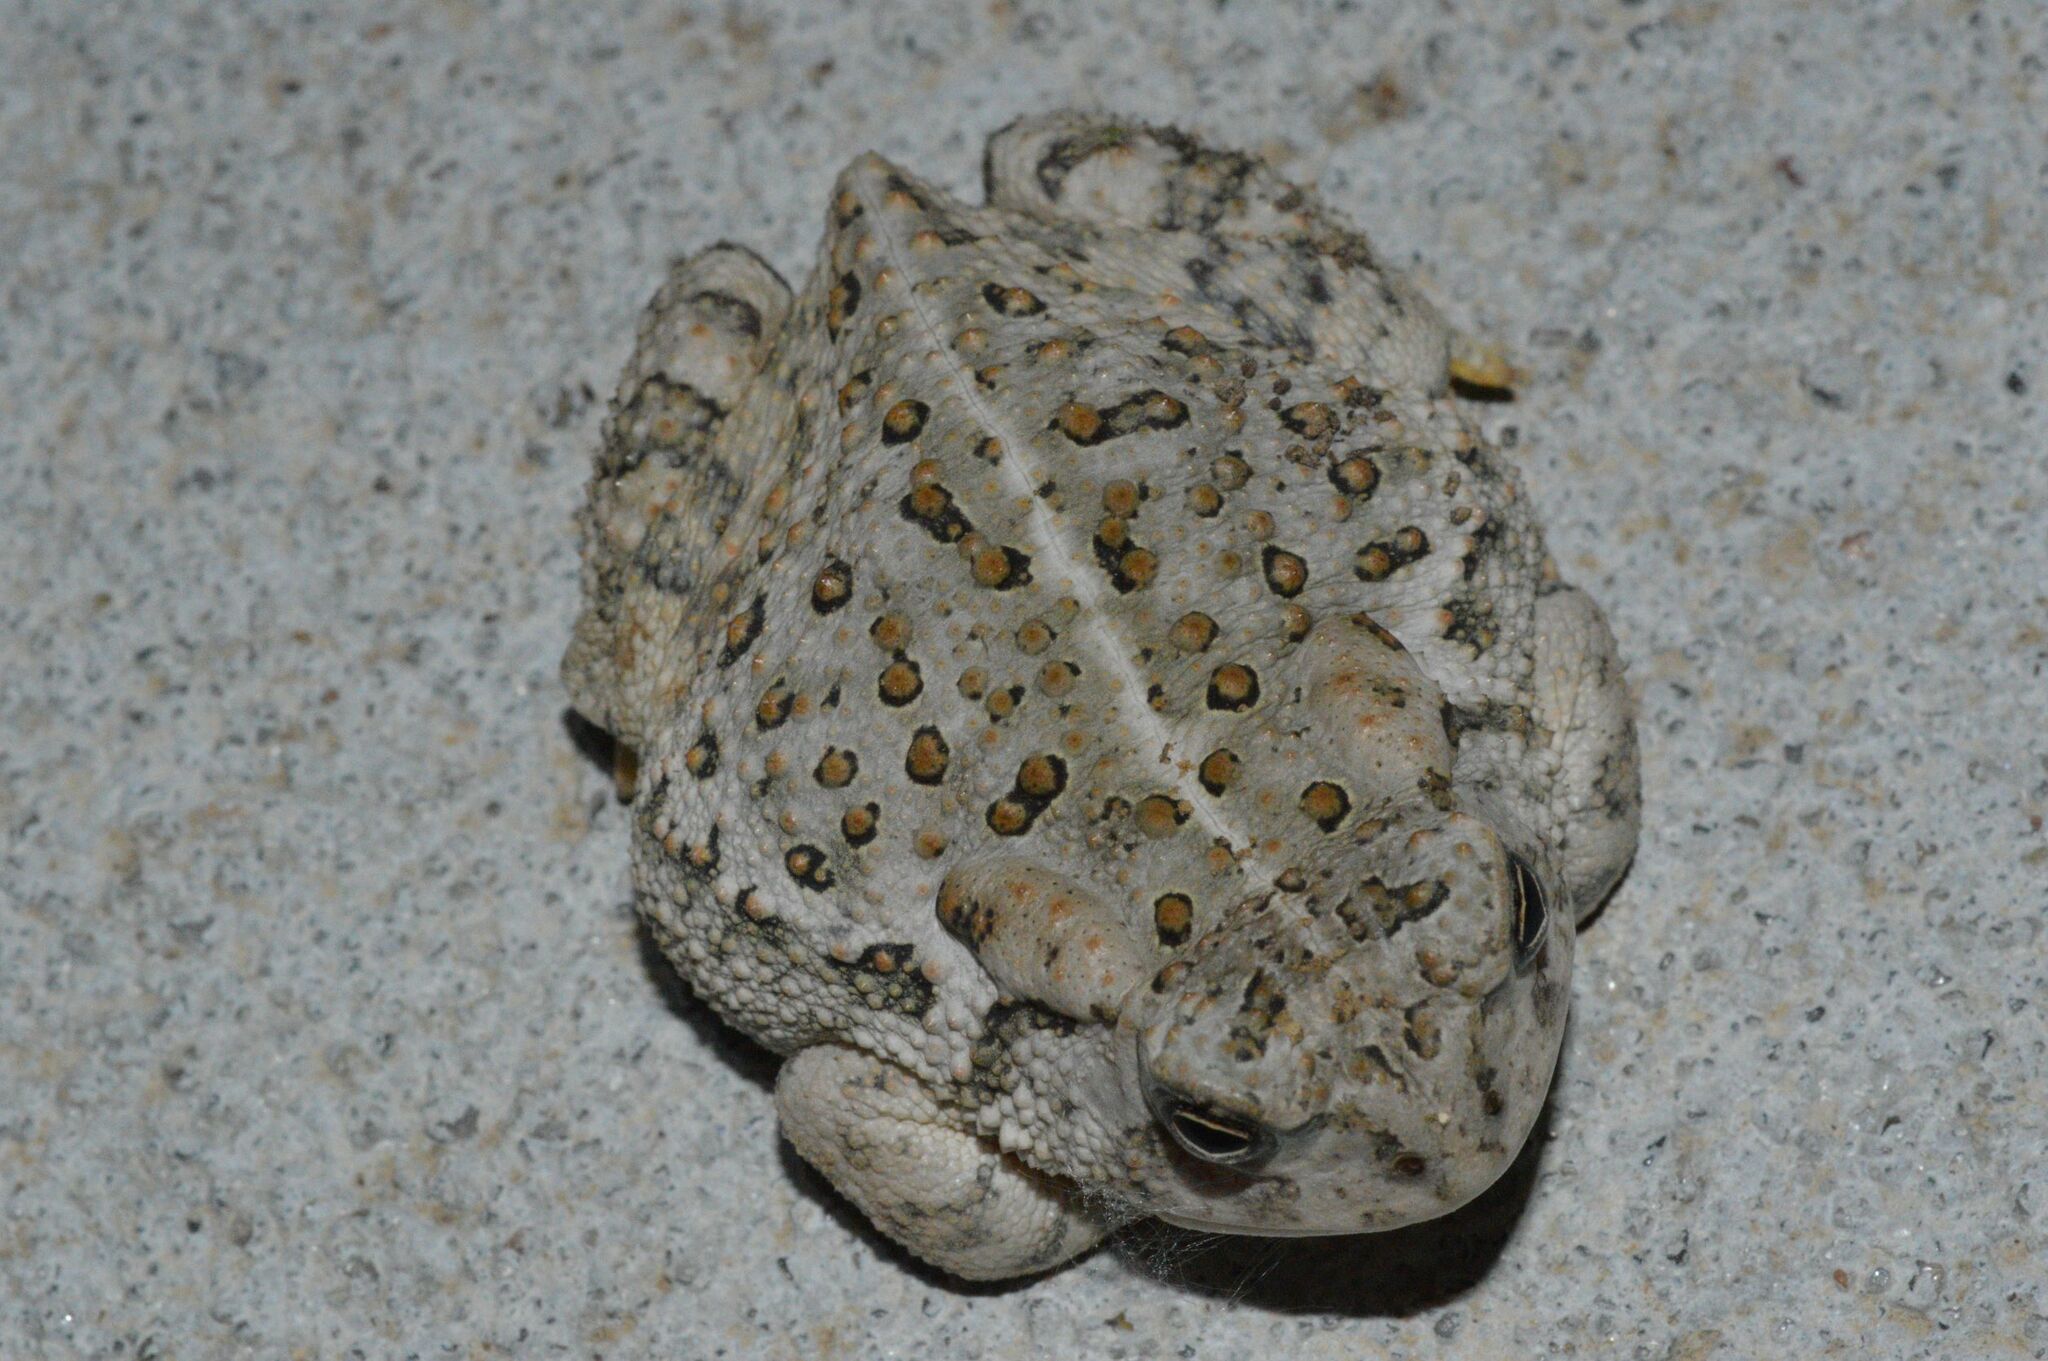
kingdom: Animalia
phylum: Chordata
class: Amphibia
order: Anura
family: Bufonidae
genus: Anaxyrus
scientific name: Anaxyrus woodhousii
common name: Woodhouse's toad
